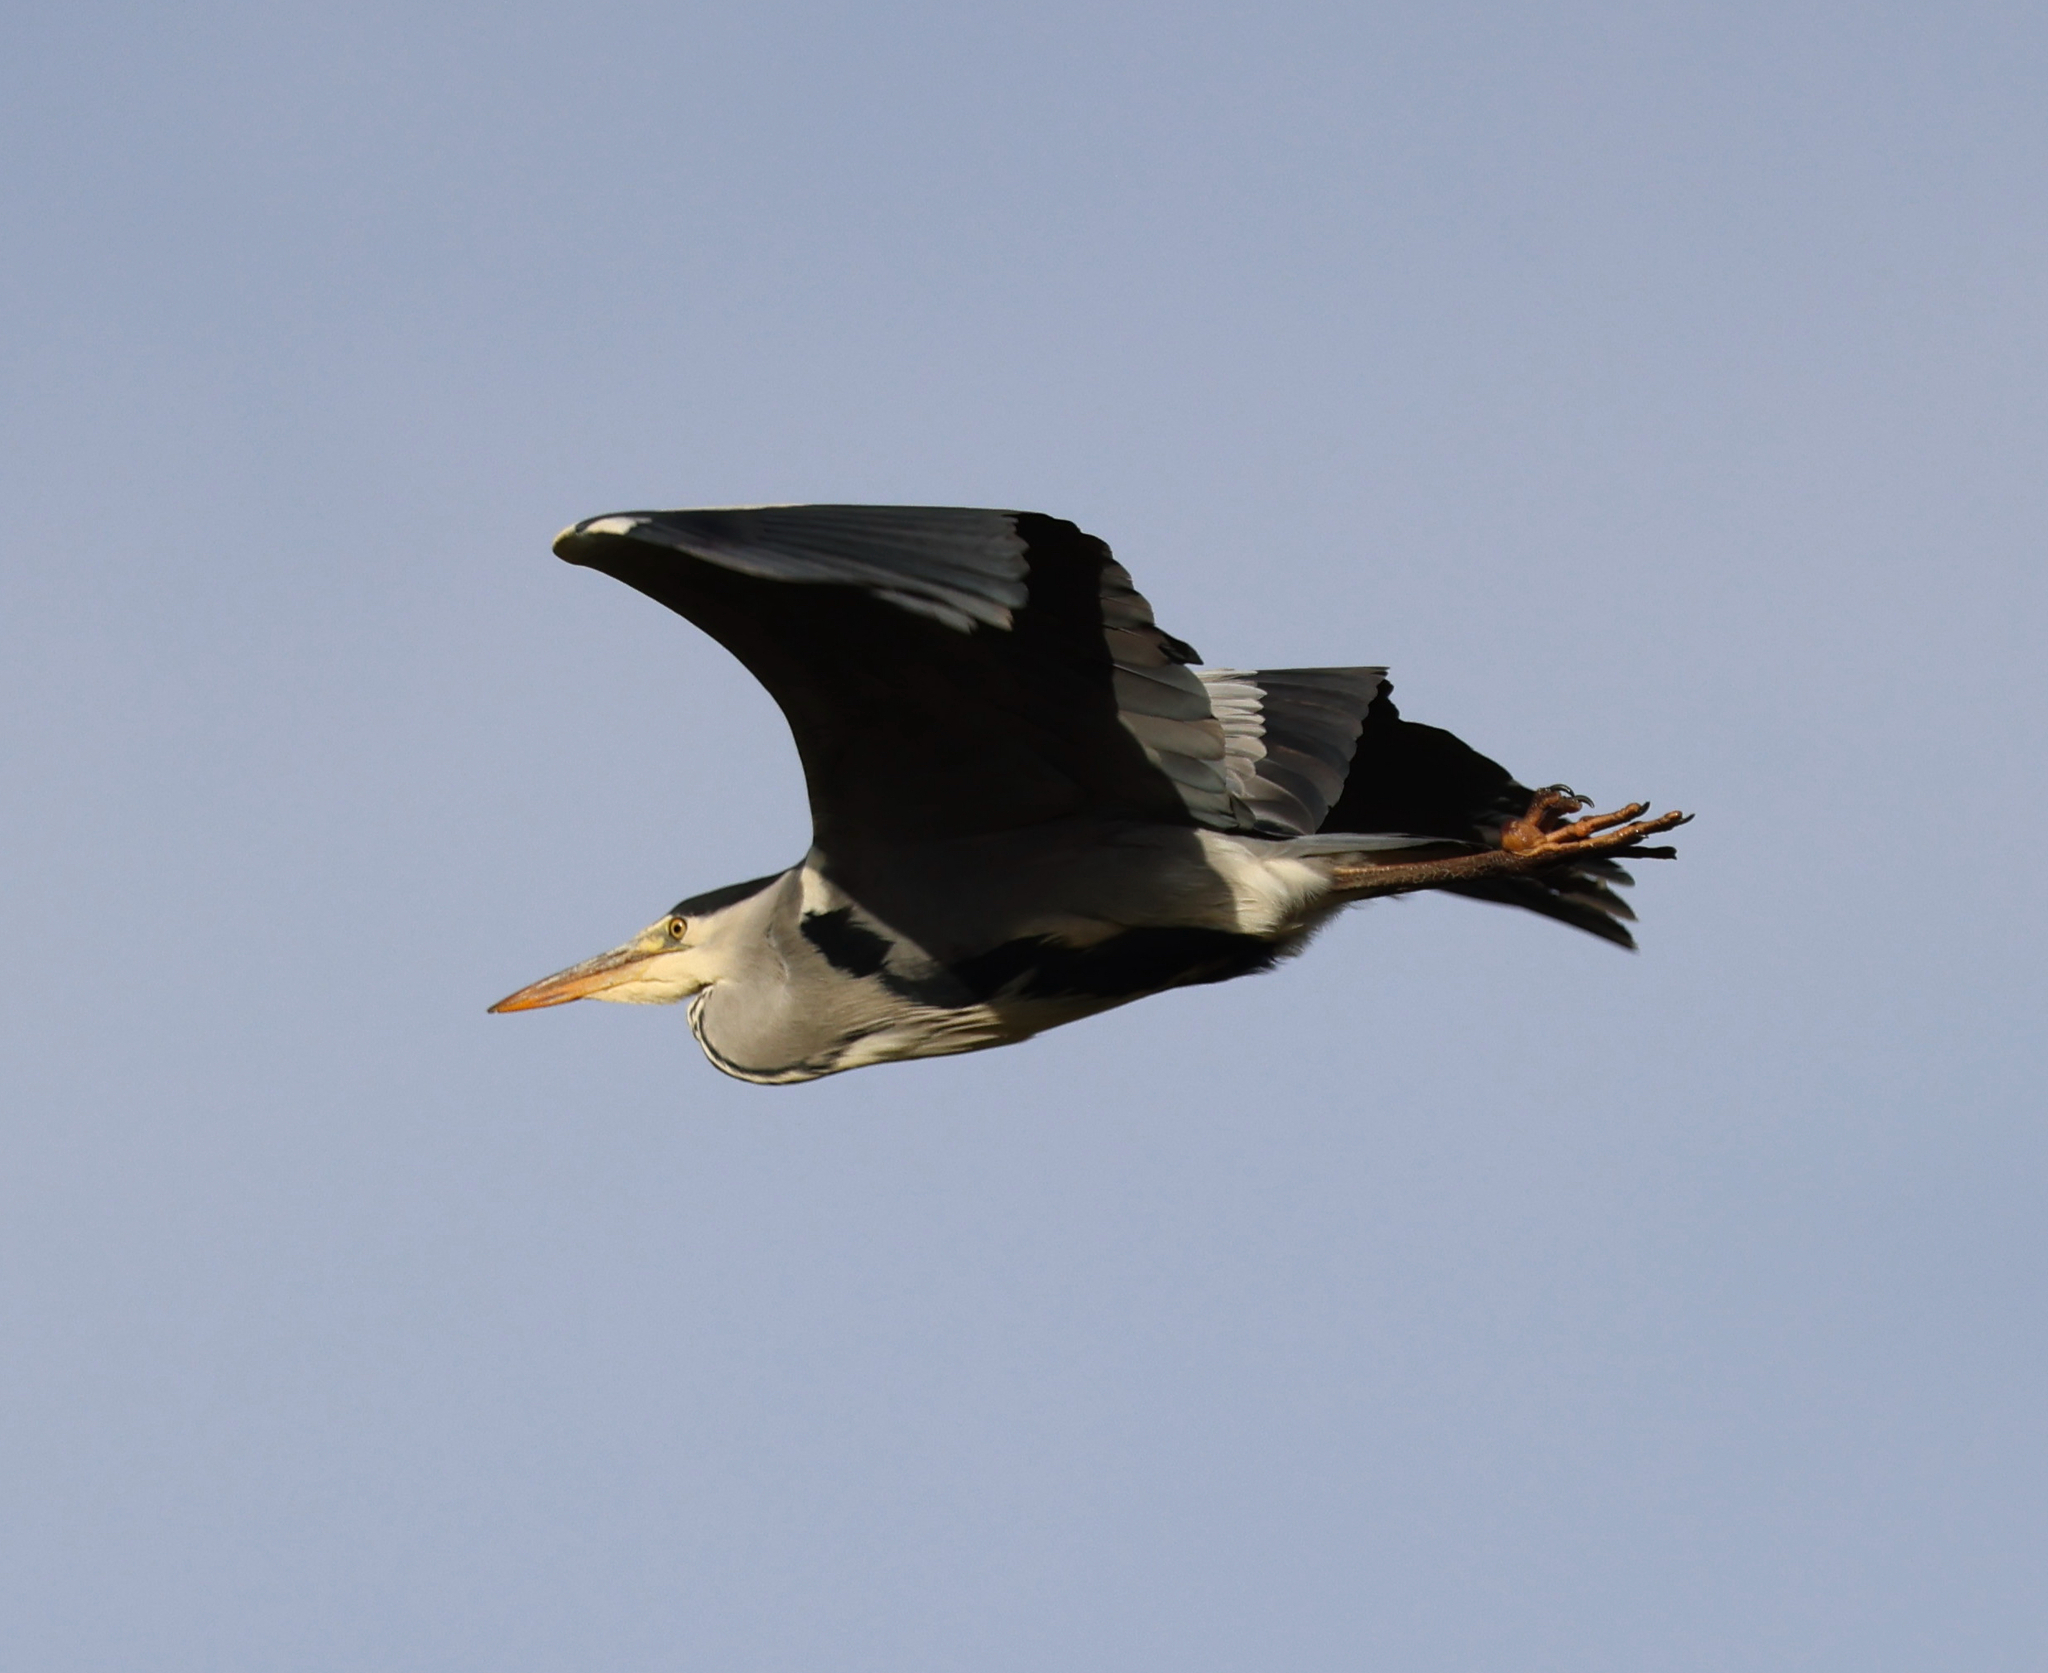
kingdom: Animalia
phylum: Chordata
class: Aves
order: Pelecaniformes
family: Ardeidae
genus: Ardea
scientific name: Ardea cinerea
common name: Grey heron
